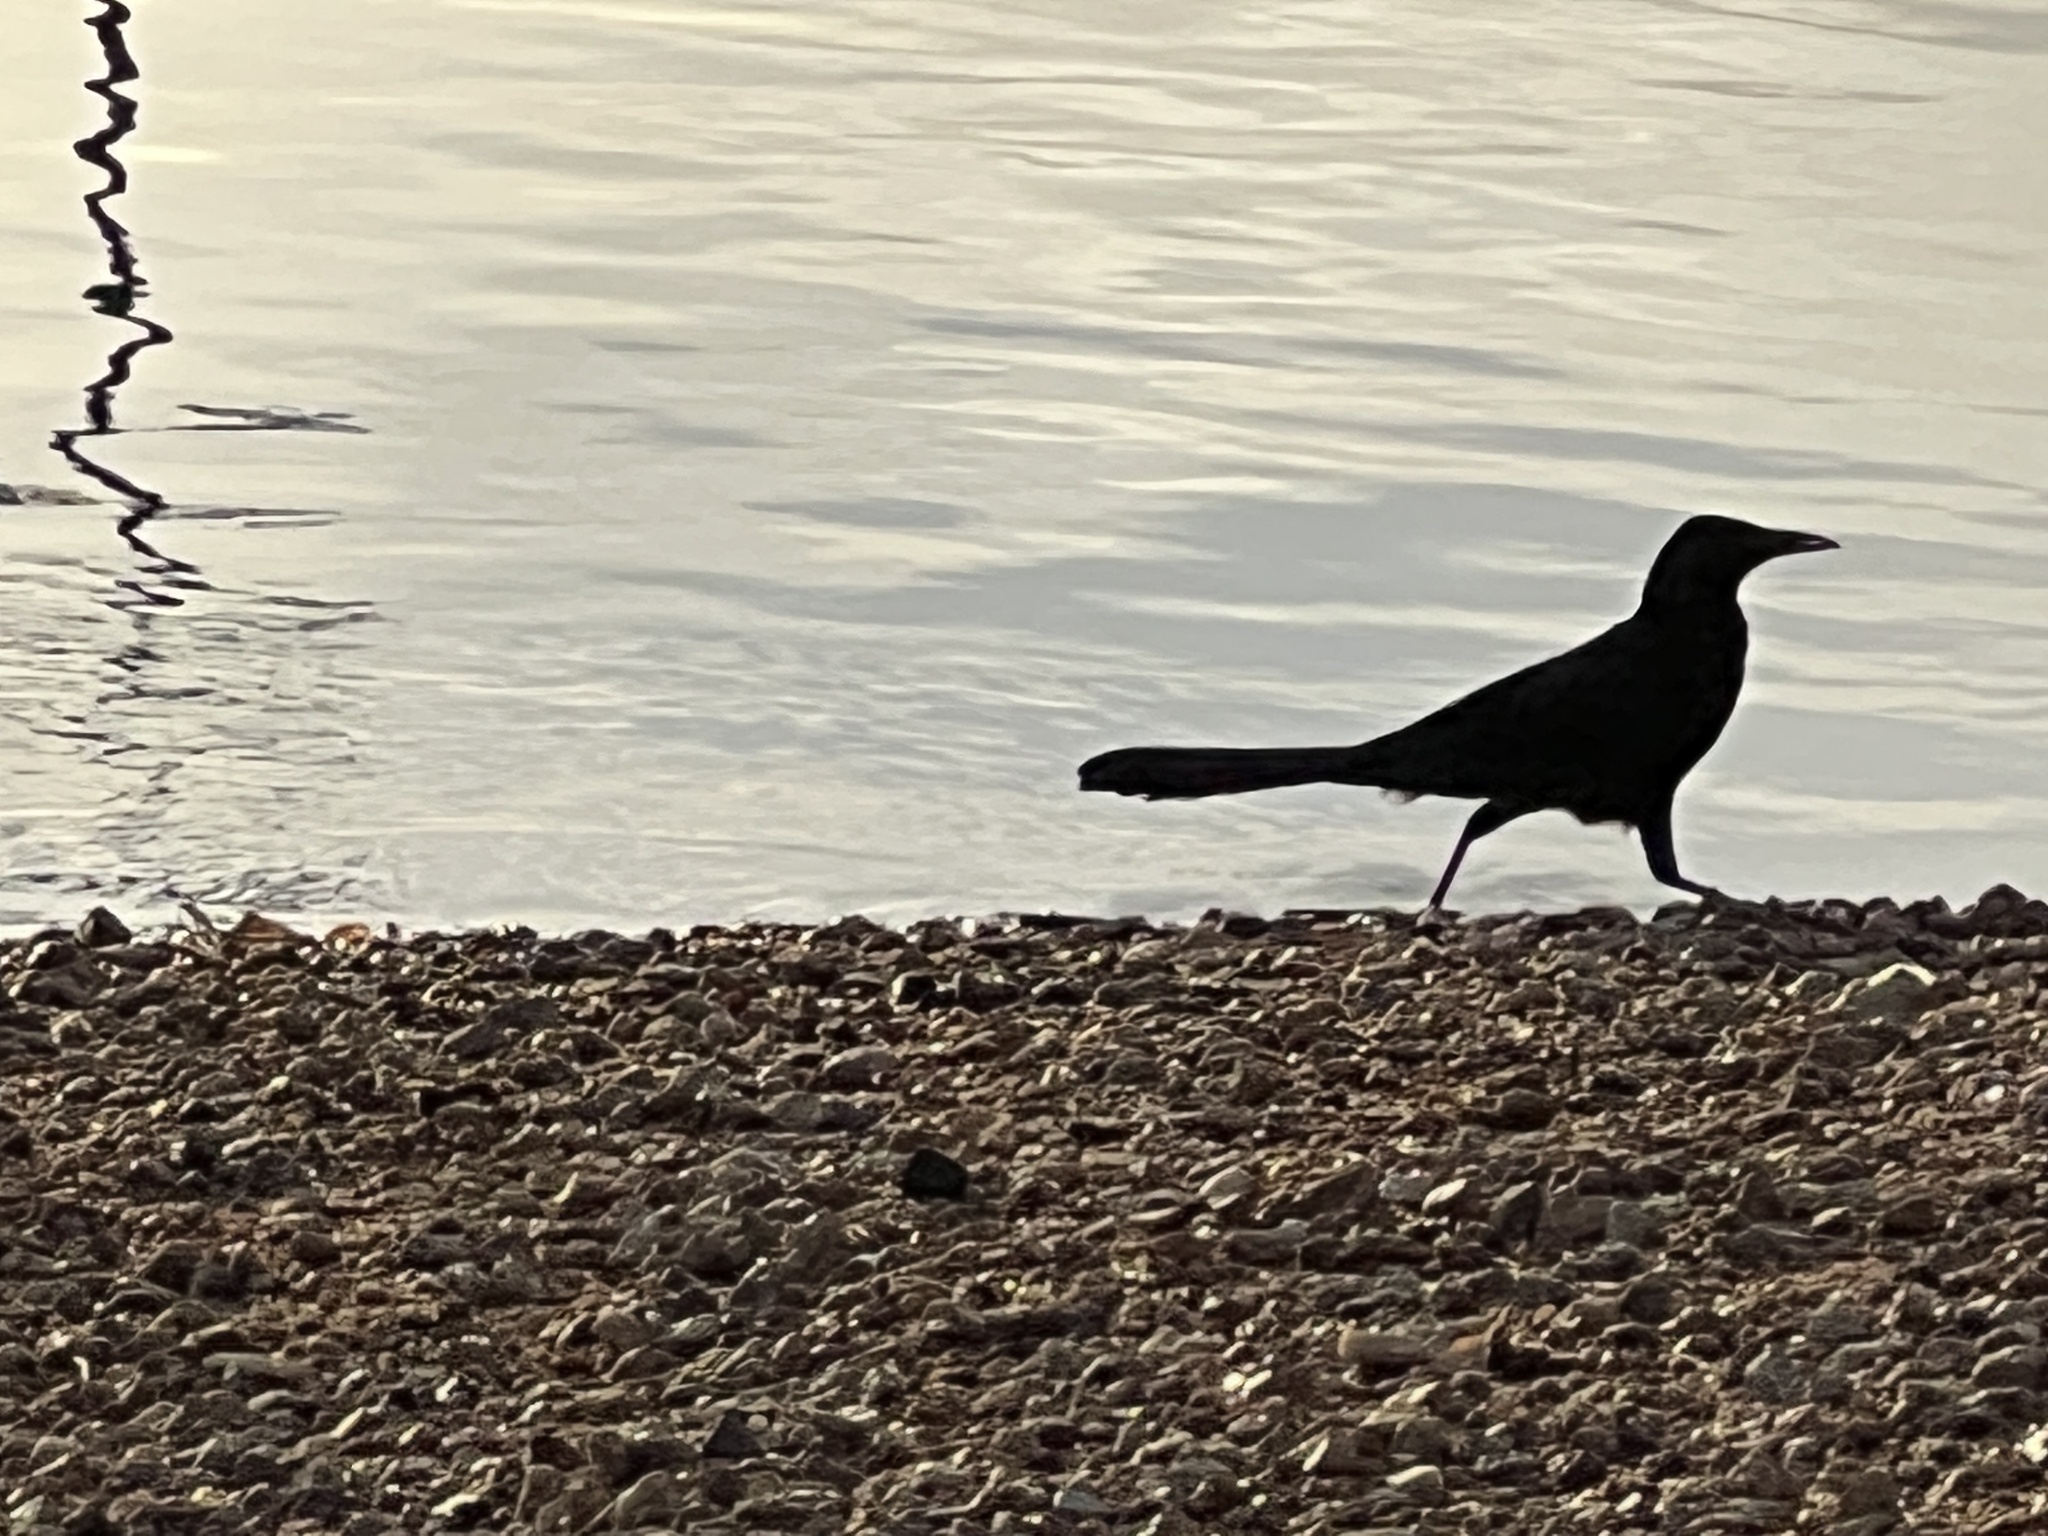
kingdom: Animalia
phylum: Chordata
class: Aves
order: Passeriformes
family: Icteridae
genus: Quiscalus
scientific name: Quiscalus mexicanus
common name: Great-tailed grackle
